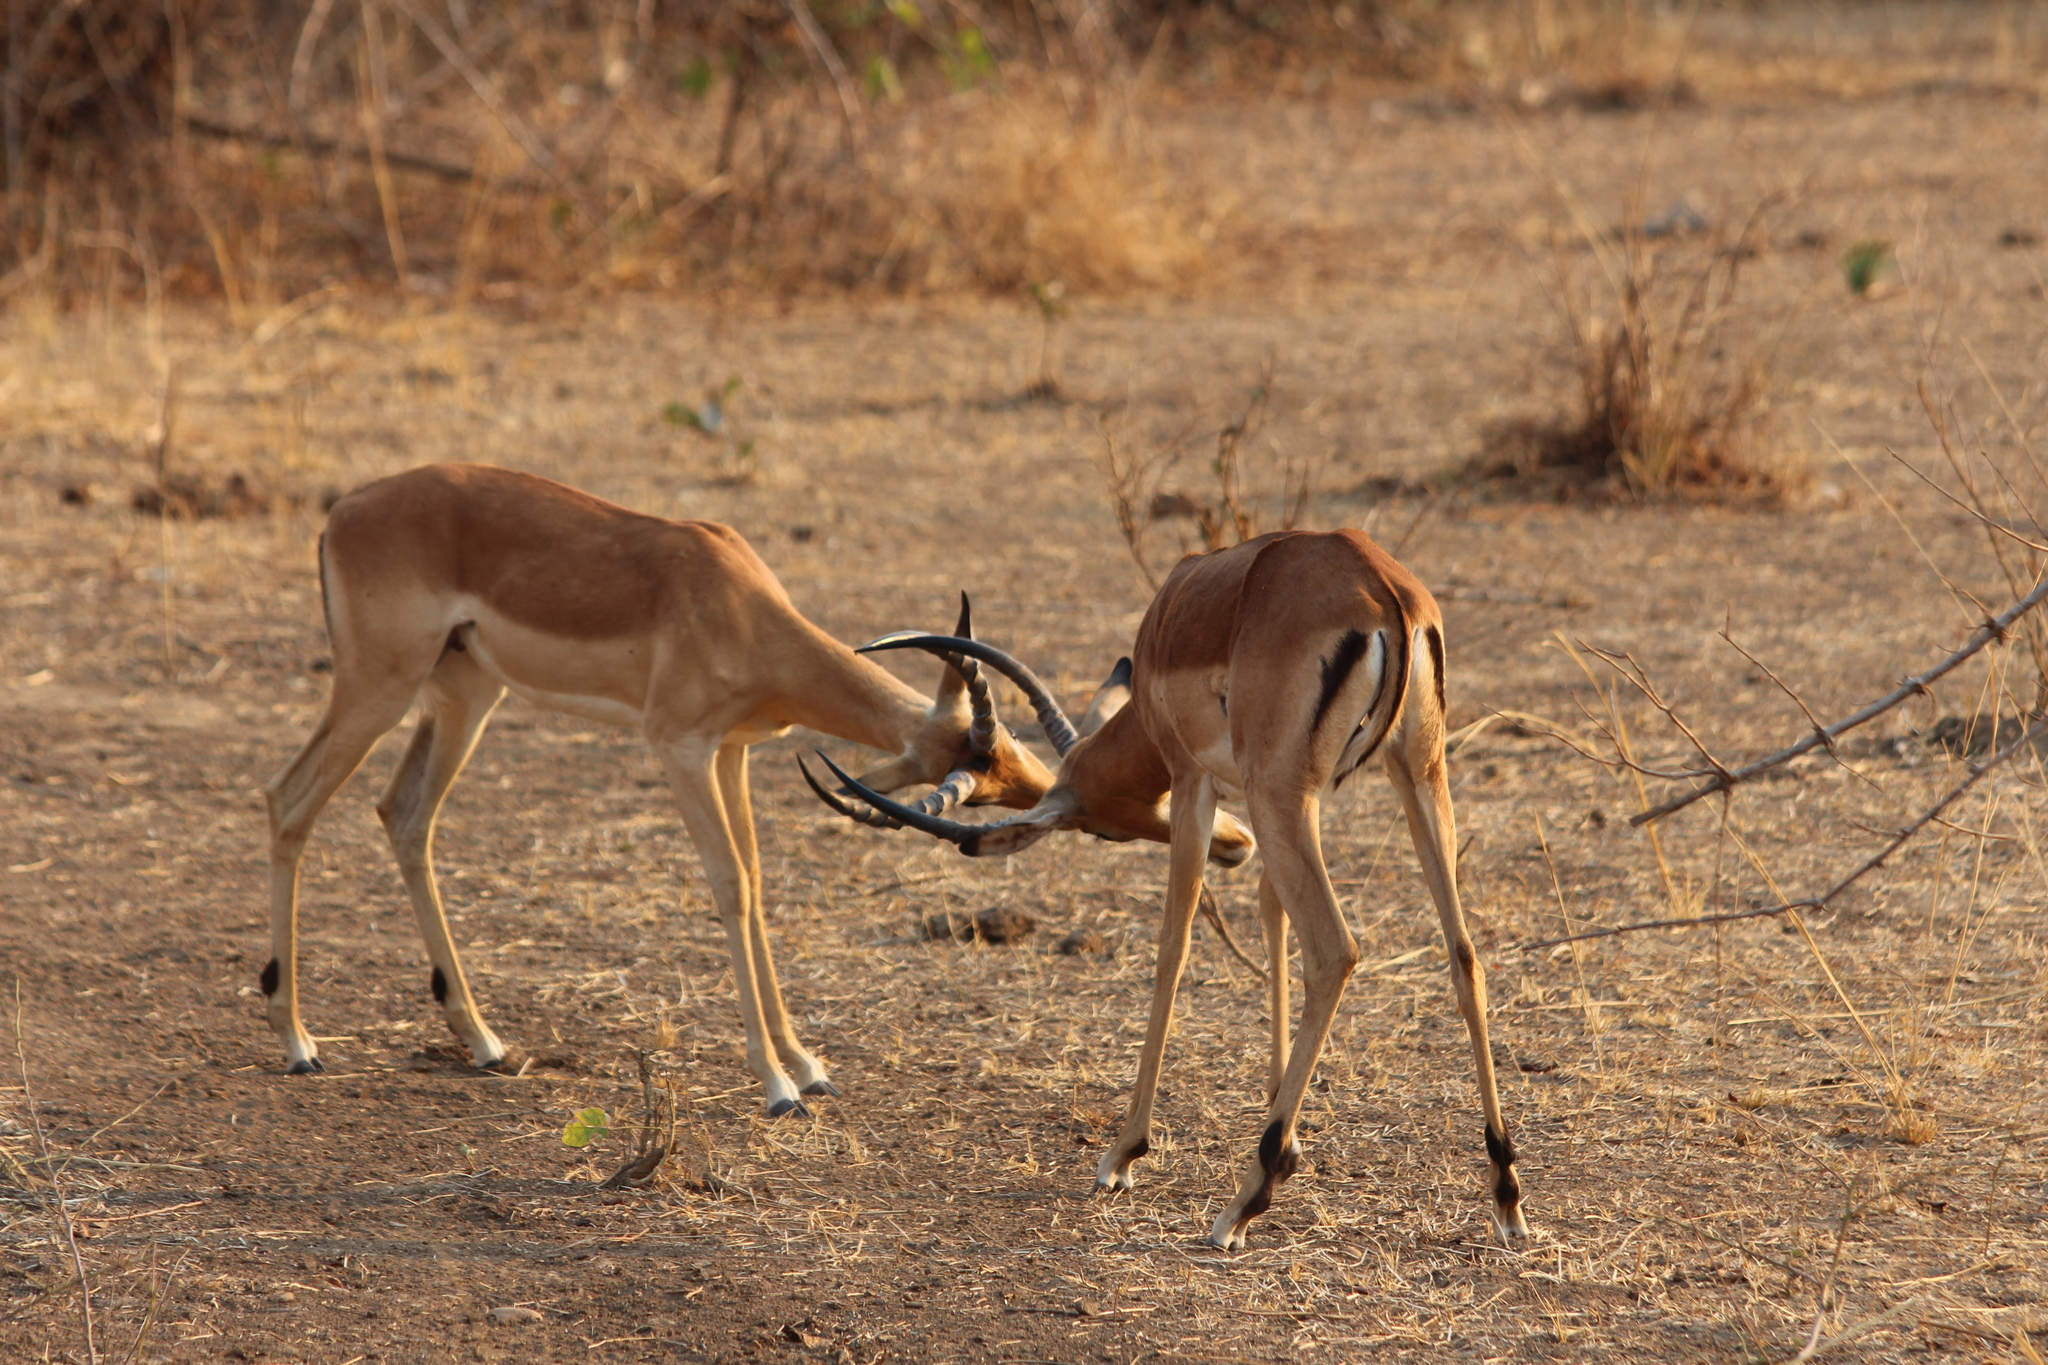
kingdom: Animalia
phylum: Chordata
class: Mammalia
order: Artiodactyla
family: Bovidae
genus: Aepyceros
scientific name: Aepyceros melampus
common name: Impala
